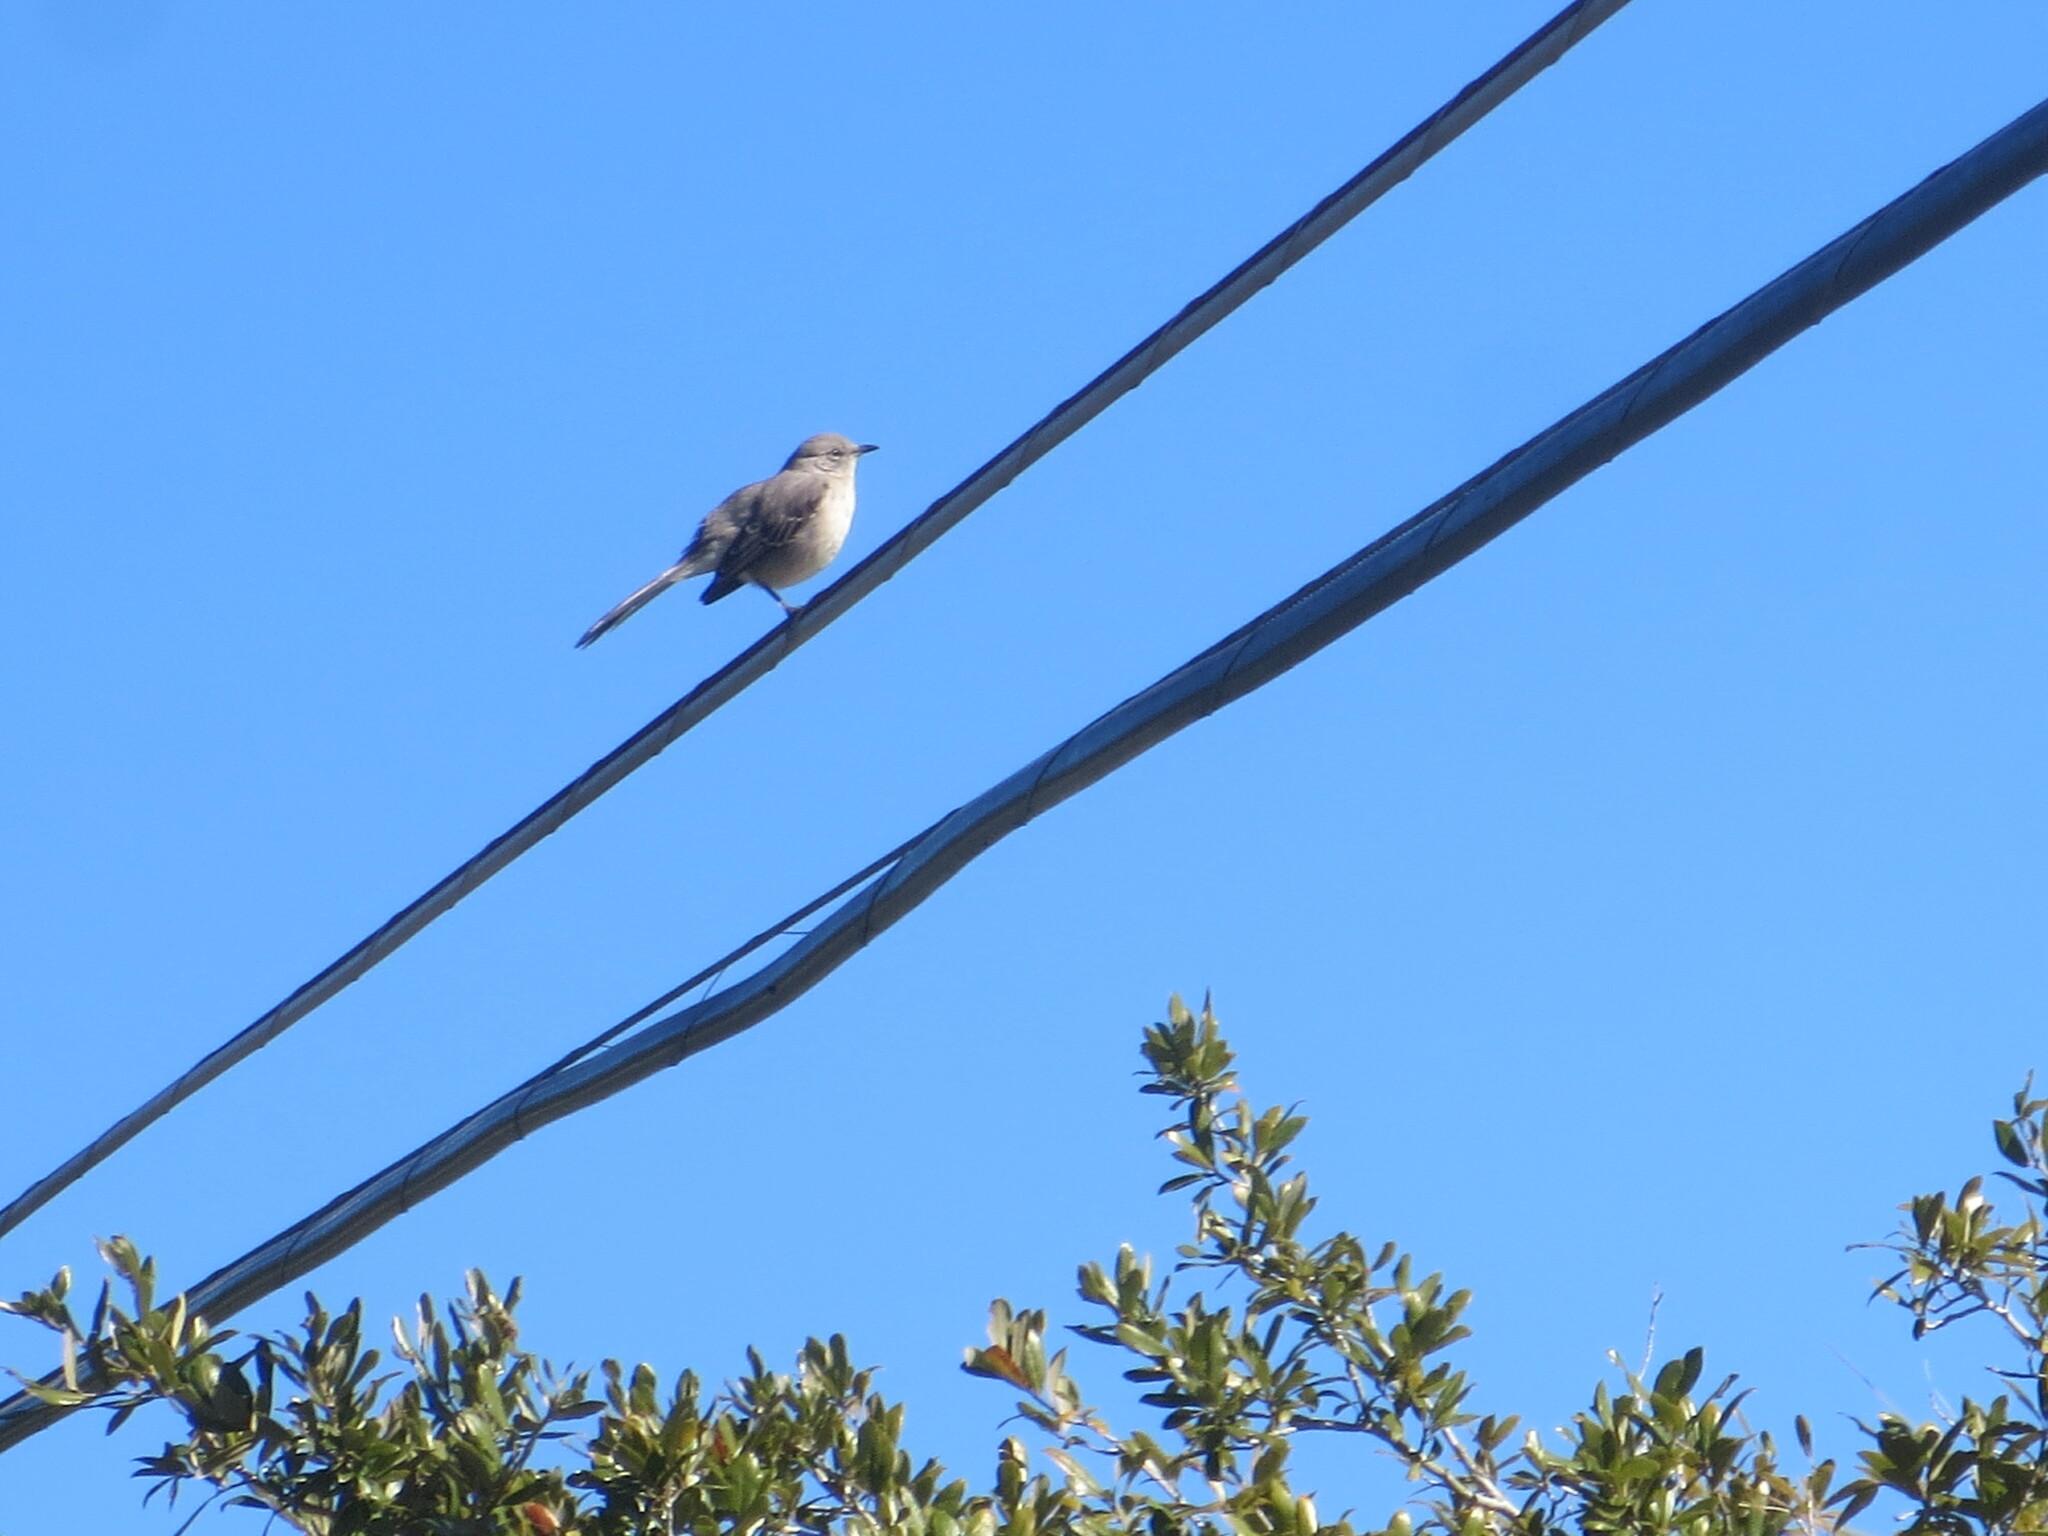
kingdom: Animalia
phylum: Chordata
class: Aves
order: Passeriformes
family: Mimidae
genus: Mimus
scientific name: Mimus polyglottos
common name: Northern mockingbird
